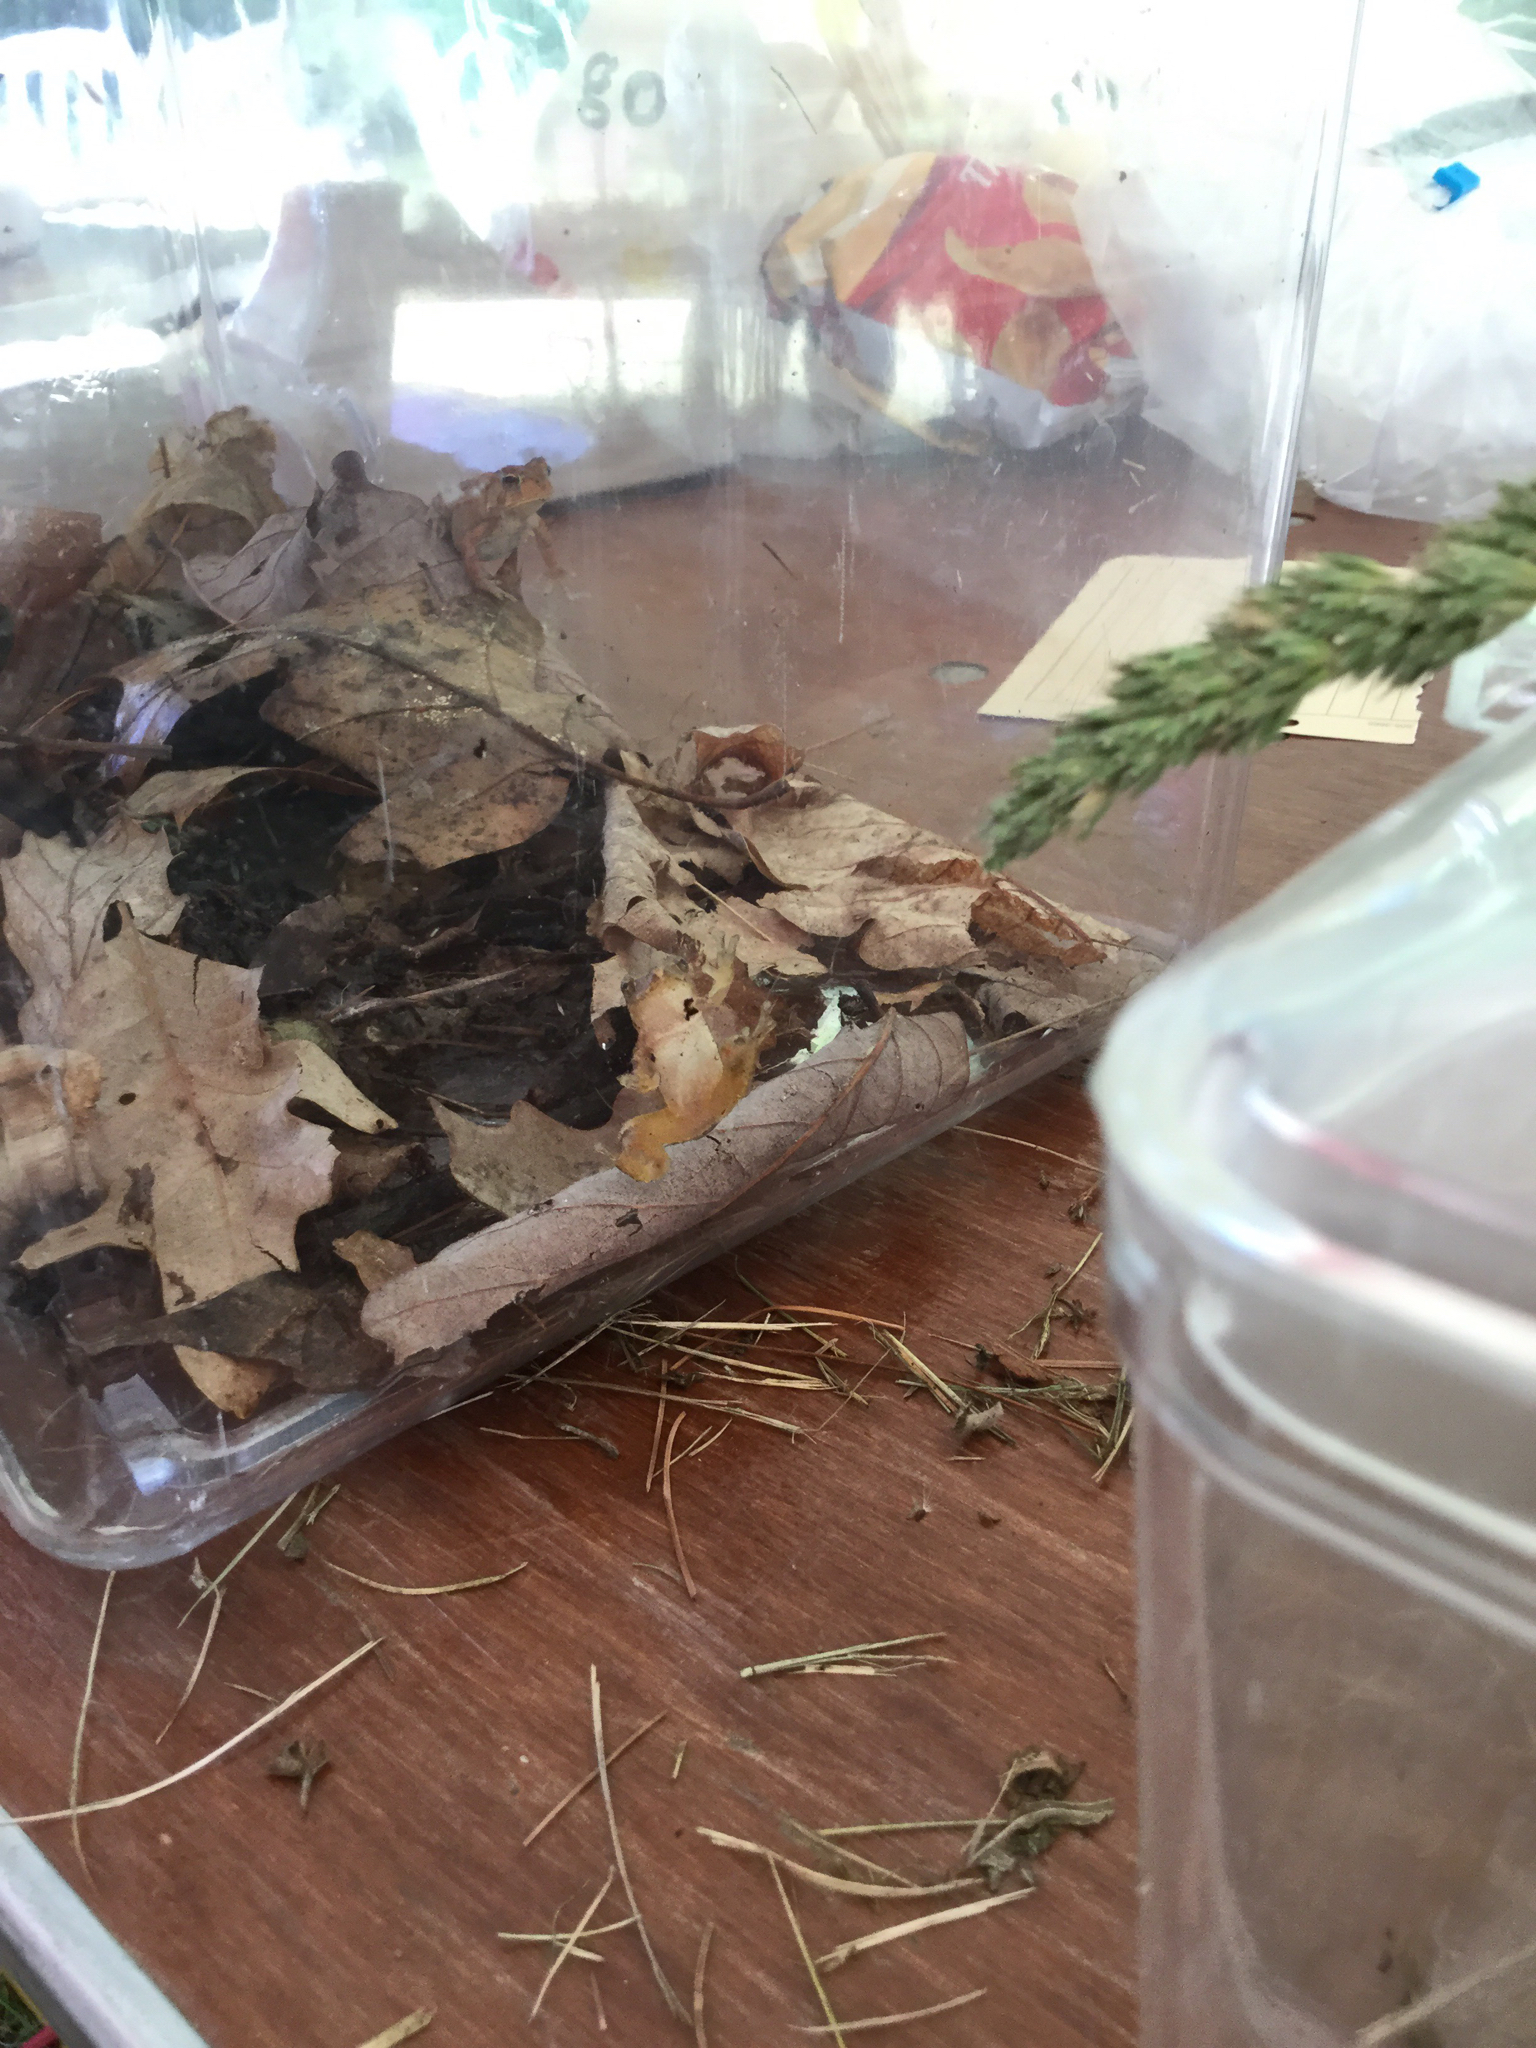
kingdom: Animalia
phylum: Chordata
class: Amphibia
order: Anura
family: Hylidae
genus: Pseudacris
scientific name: Pseudacris crucifer
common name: Spring peeper
